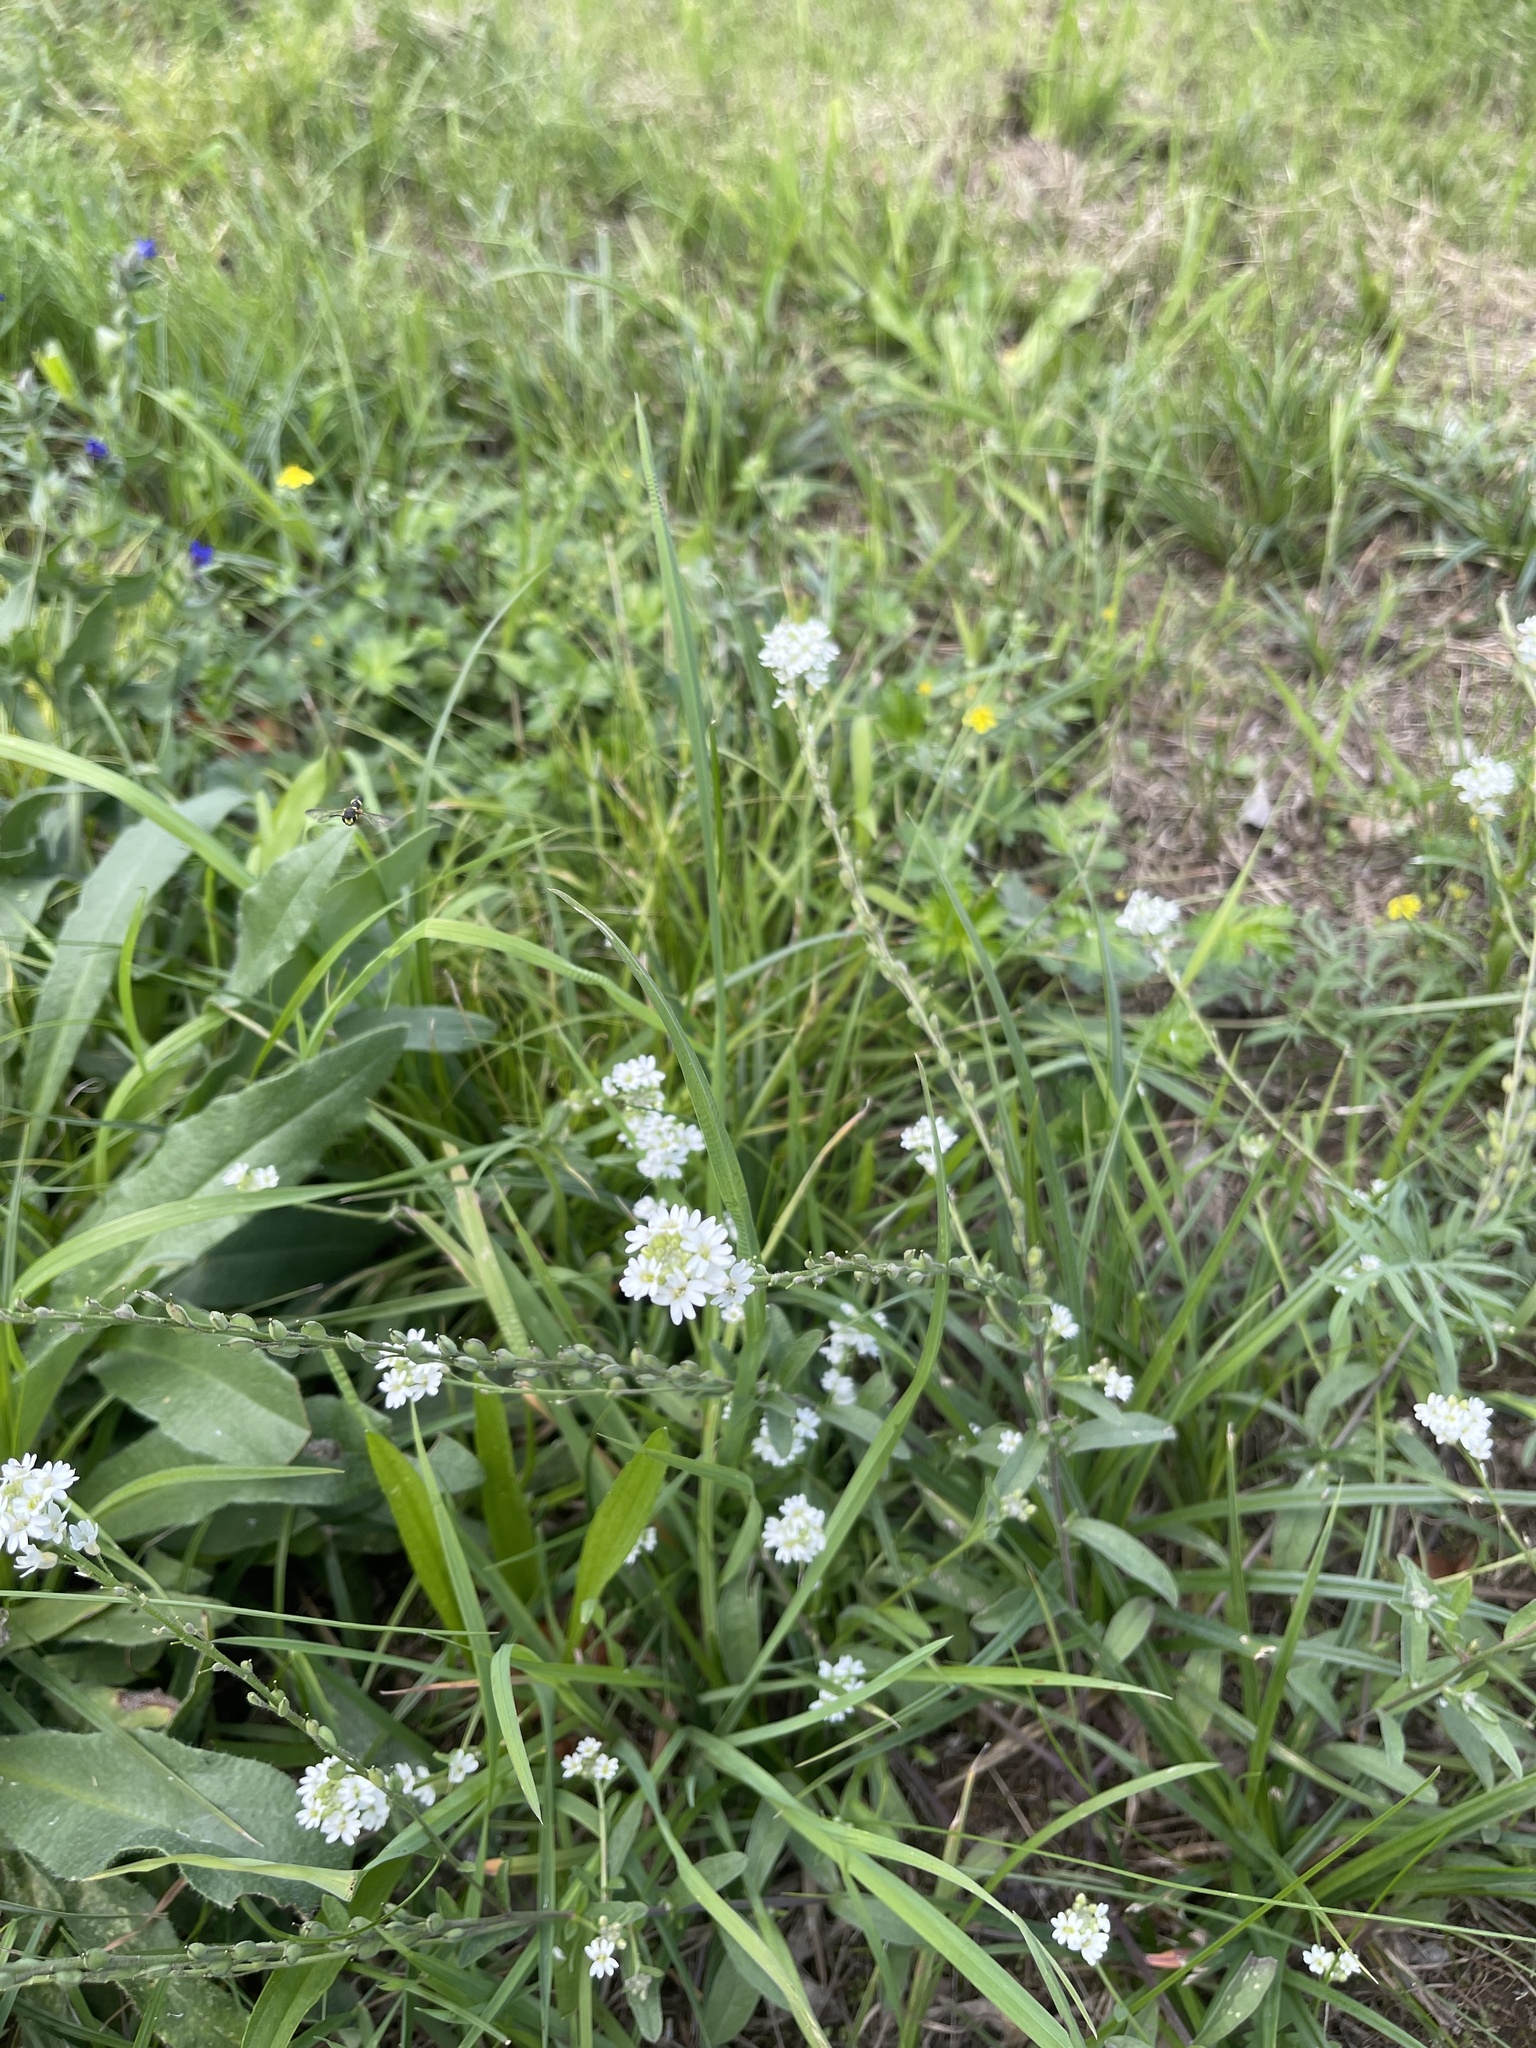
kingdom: Plantae
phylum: Tracheophyta
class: Magnoliopsida
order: Brassicales
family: Brassicaceae
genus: Berteroa
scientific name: Berteroa incana
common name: Hoary alison
